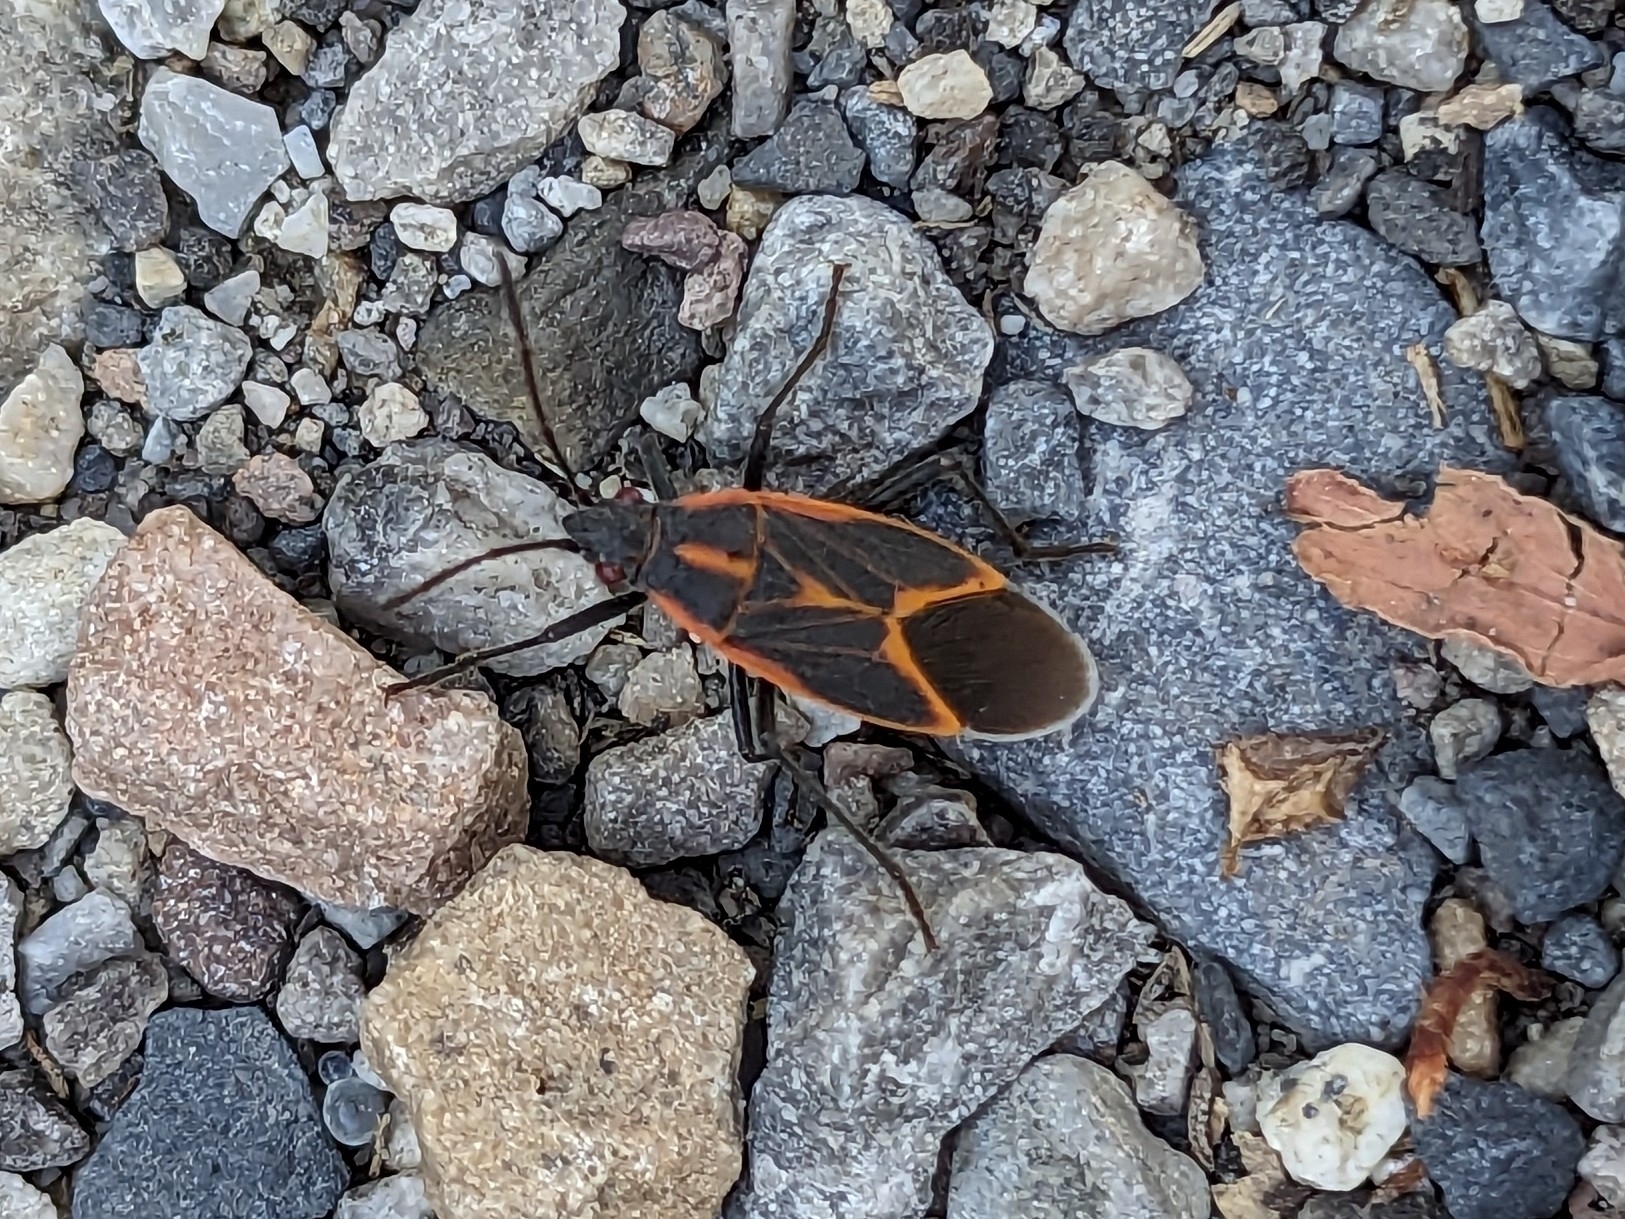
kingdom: Animalia
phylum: Arthropoda
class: Insecta
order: Hemiptera
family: Rhopalidae
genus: Boisea
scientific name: Boisea trivittata
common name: Boxelder bug
